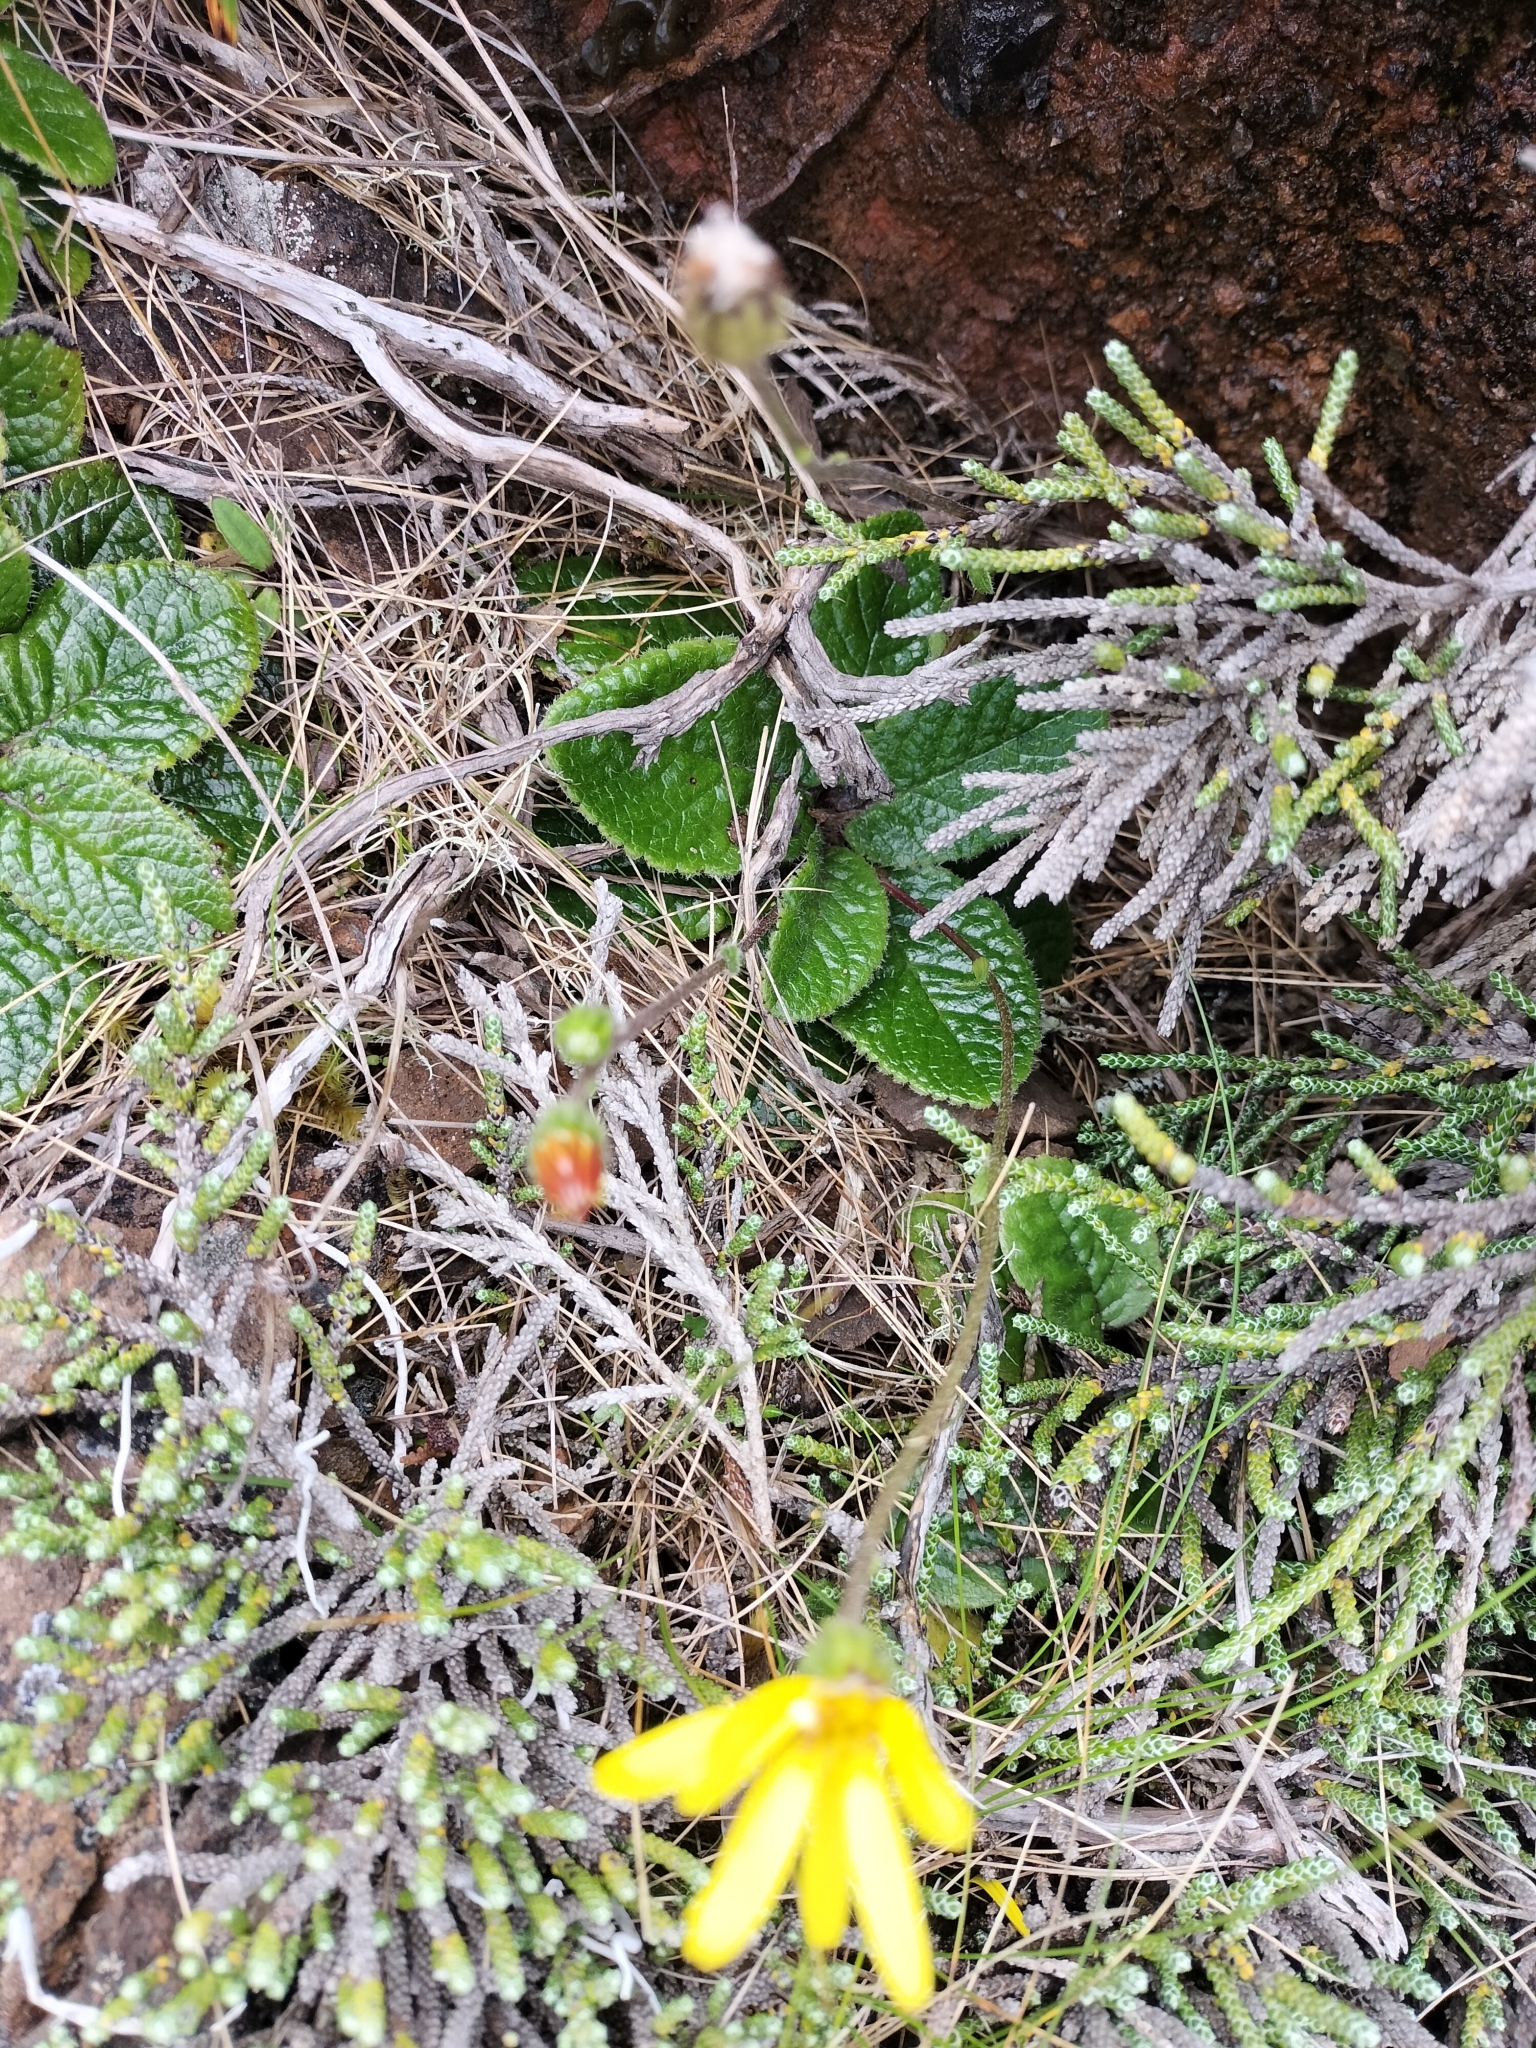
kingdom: Plantae
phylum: Tracheophyta
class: Magnoliopsida
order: Asterales
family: Asteraceae
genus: Brachyglottis
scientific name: Brachyglottis lagopus
